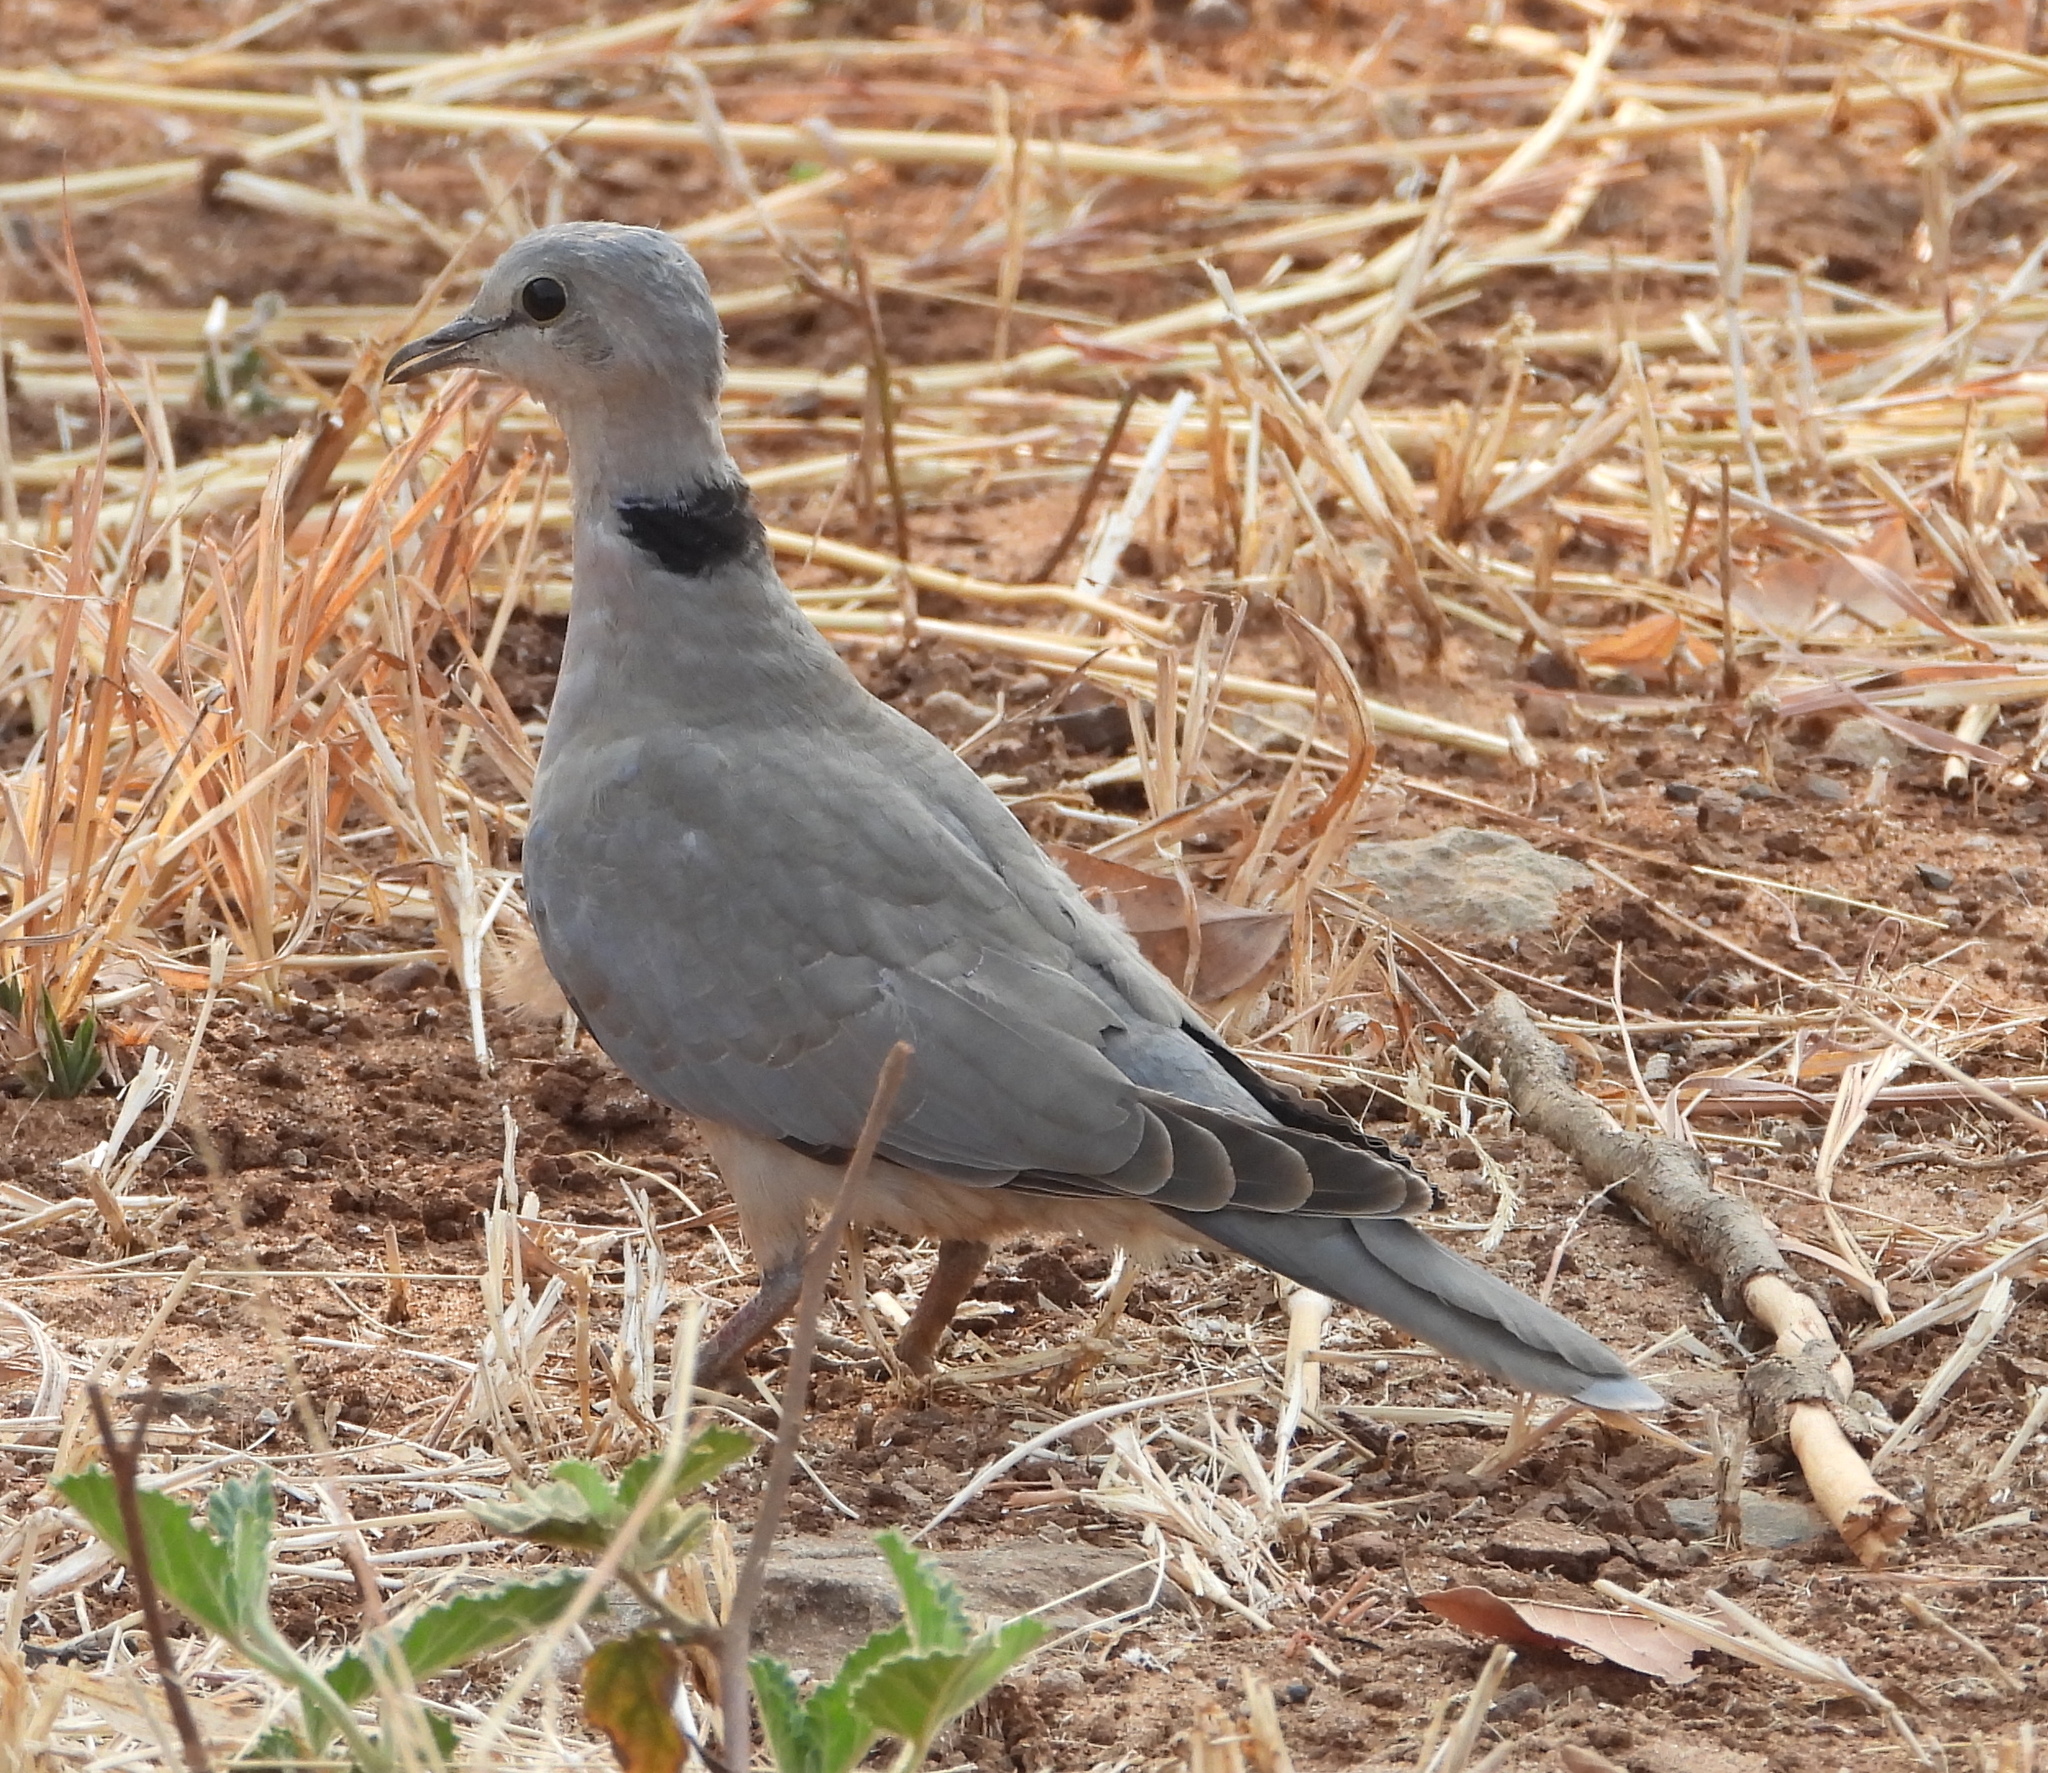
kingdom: Animalia
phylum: Chordata
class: Aves
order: Columbiformes
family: Columbidae
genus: Streptopelia
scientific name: Streptopelia capicola
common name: Ring-necked dove
